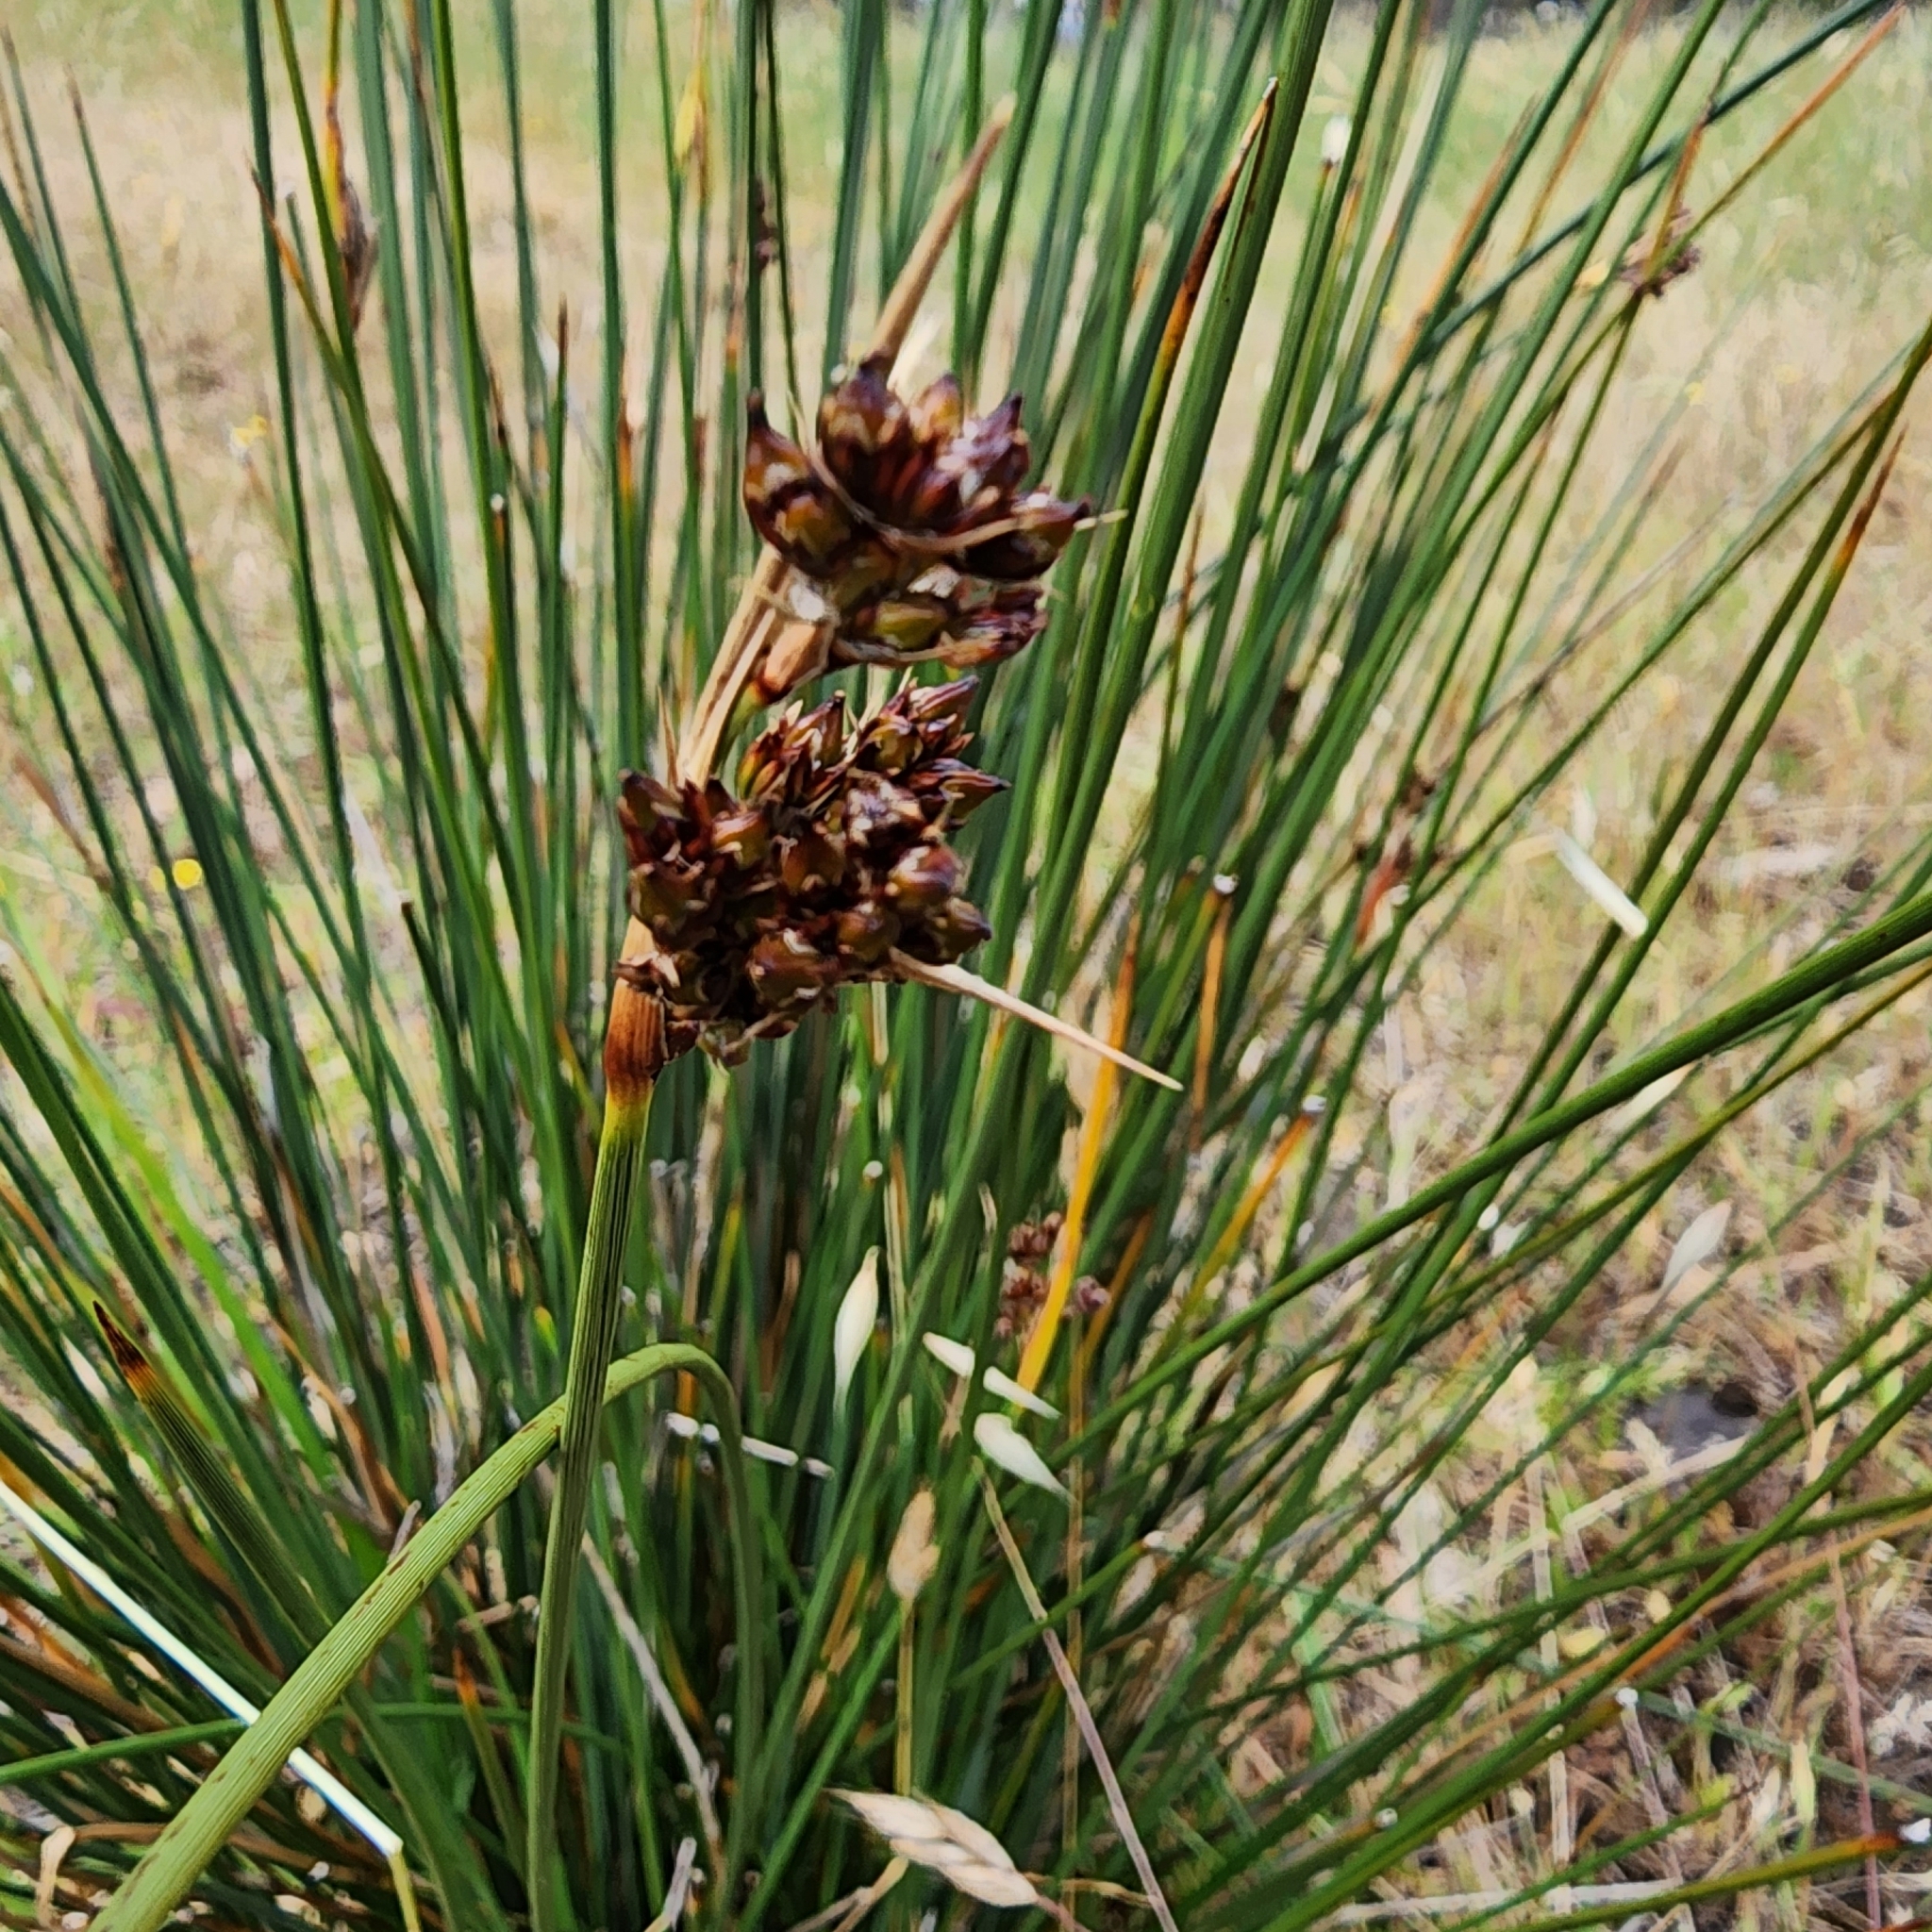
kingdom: Plantae
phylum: Tracheophyta
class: Liliopsida
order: Poales
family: Juncaceae
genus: Juncus
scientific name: Juncus acutus
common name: Sharp rush
